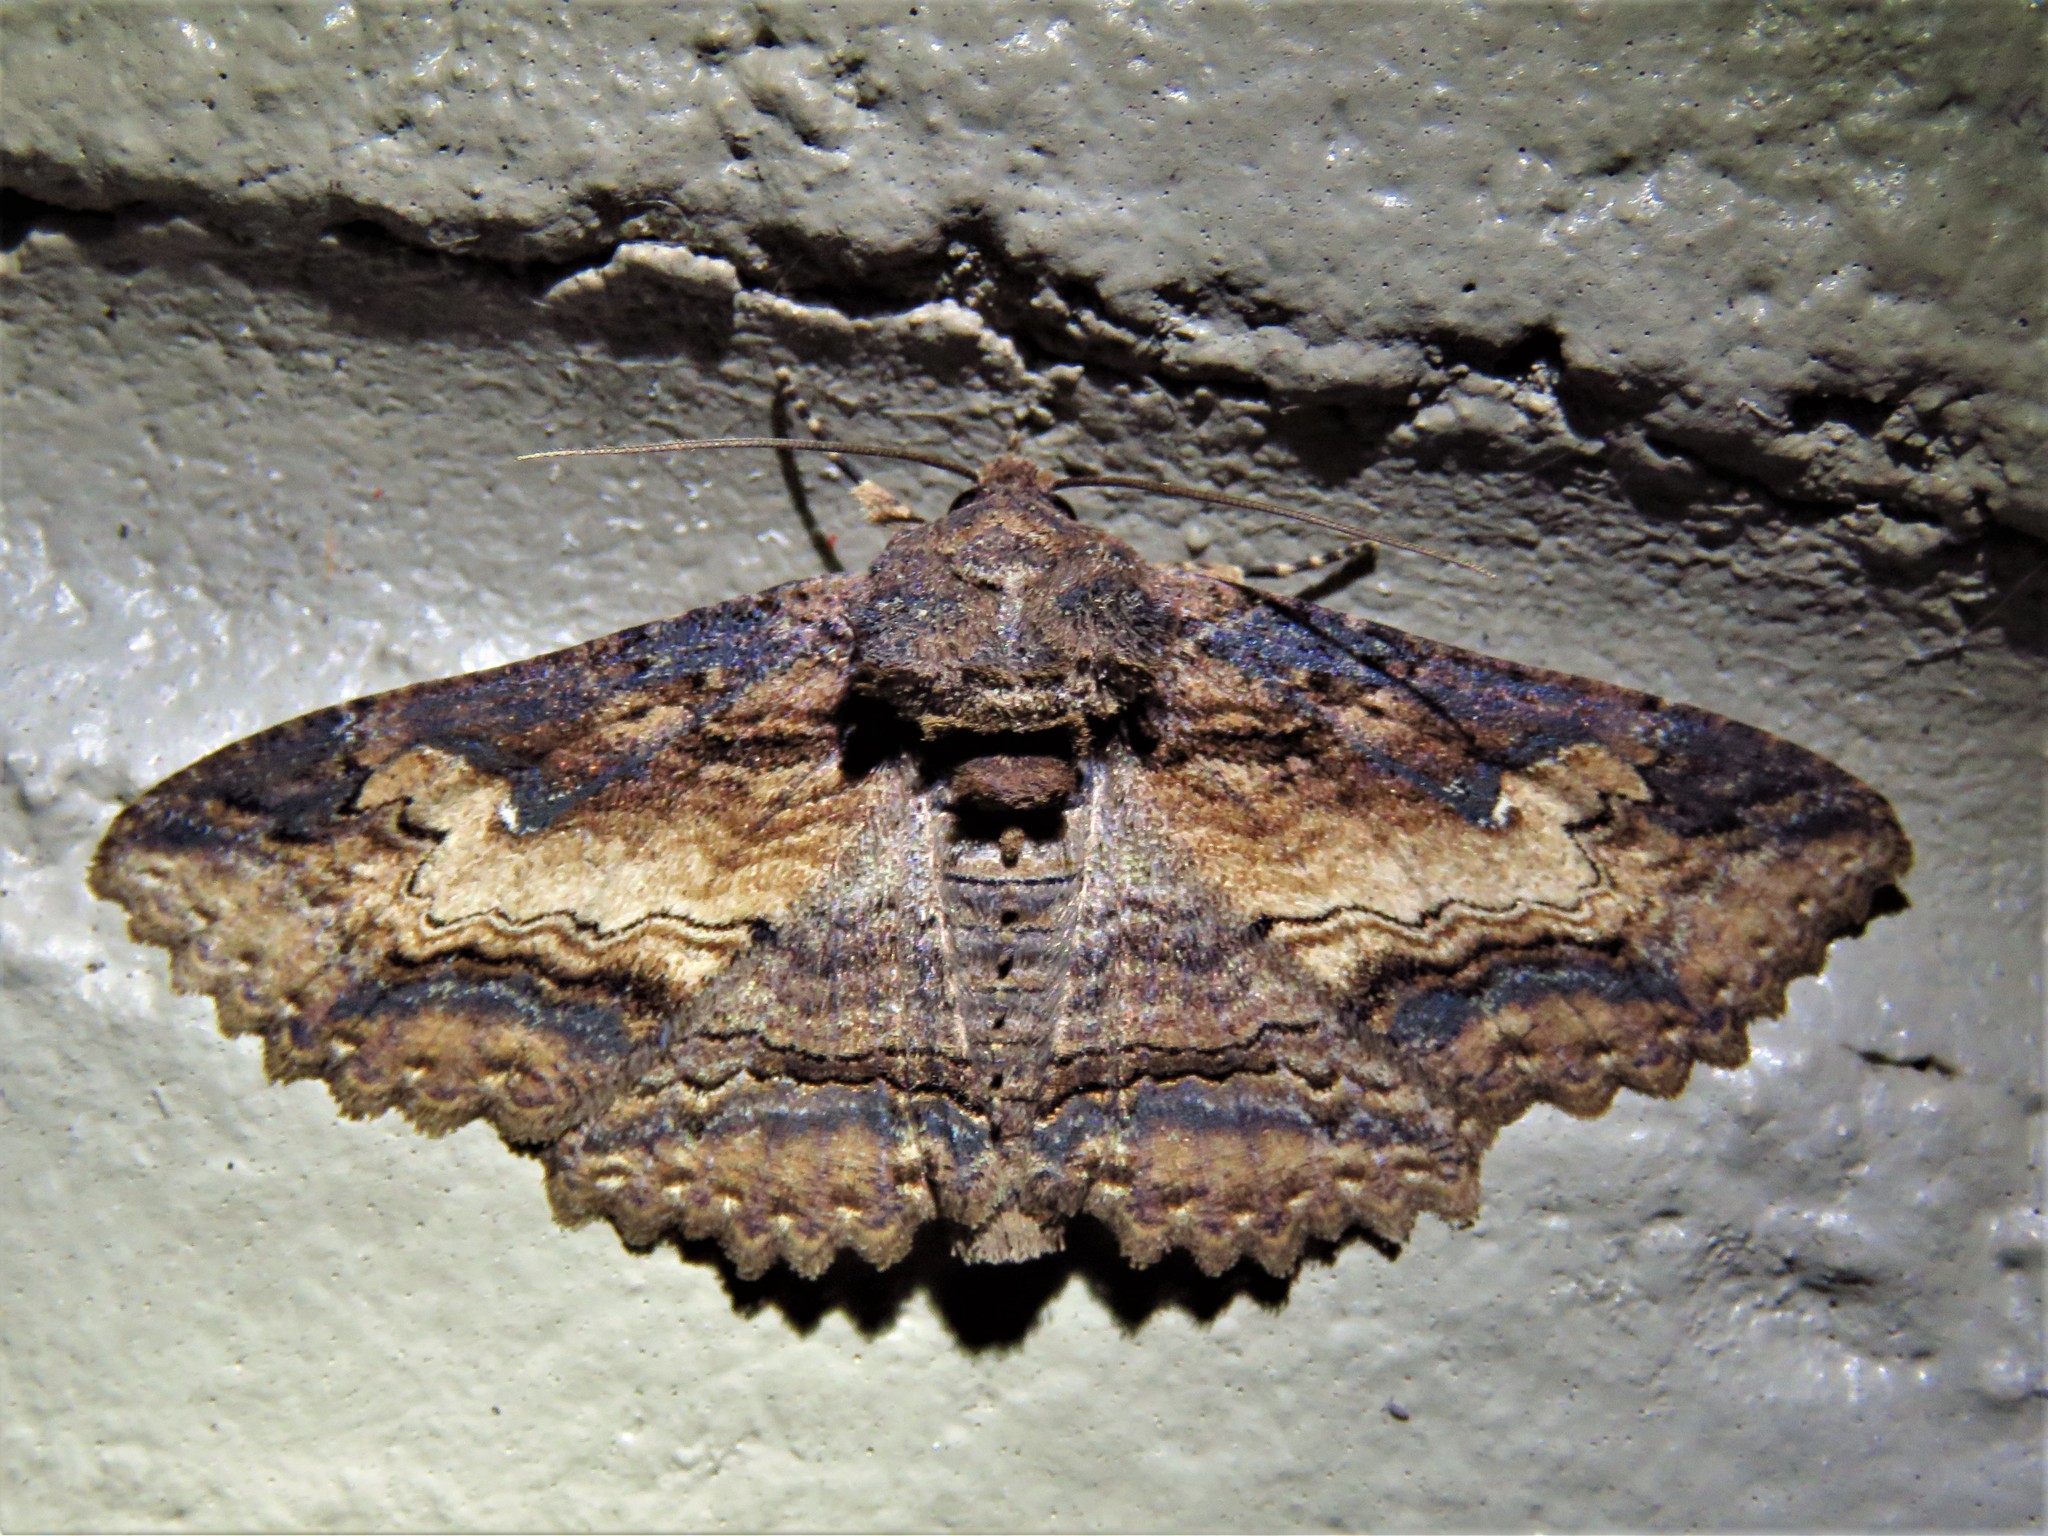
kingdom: Animalia
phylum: Arthropoda
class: Insecta
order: Lepidoptera
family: Erebidae
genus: Zale
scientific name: Zale lunata
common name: Lunate zale moth
